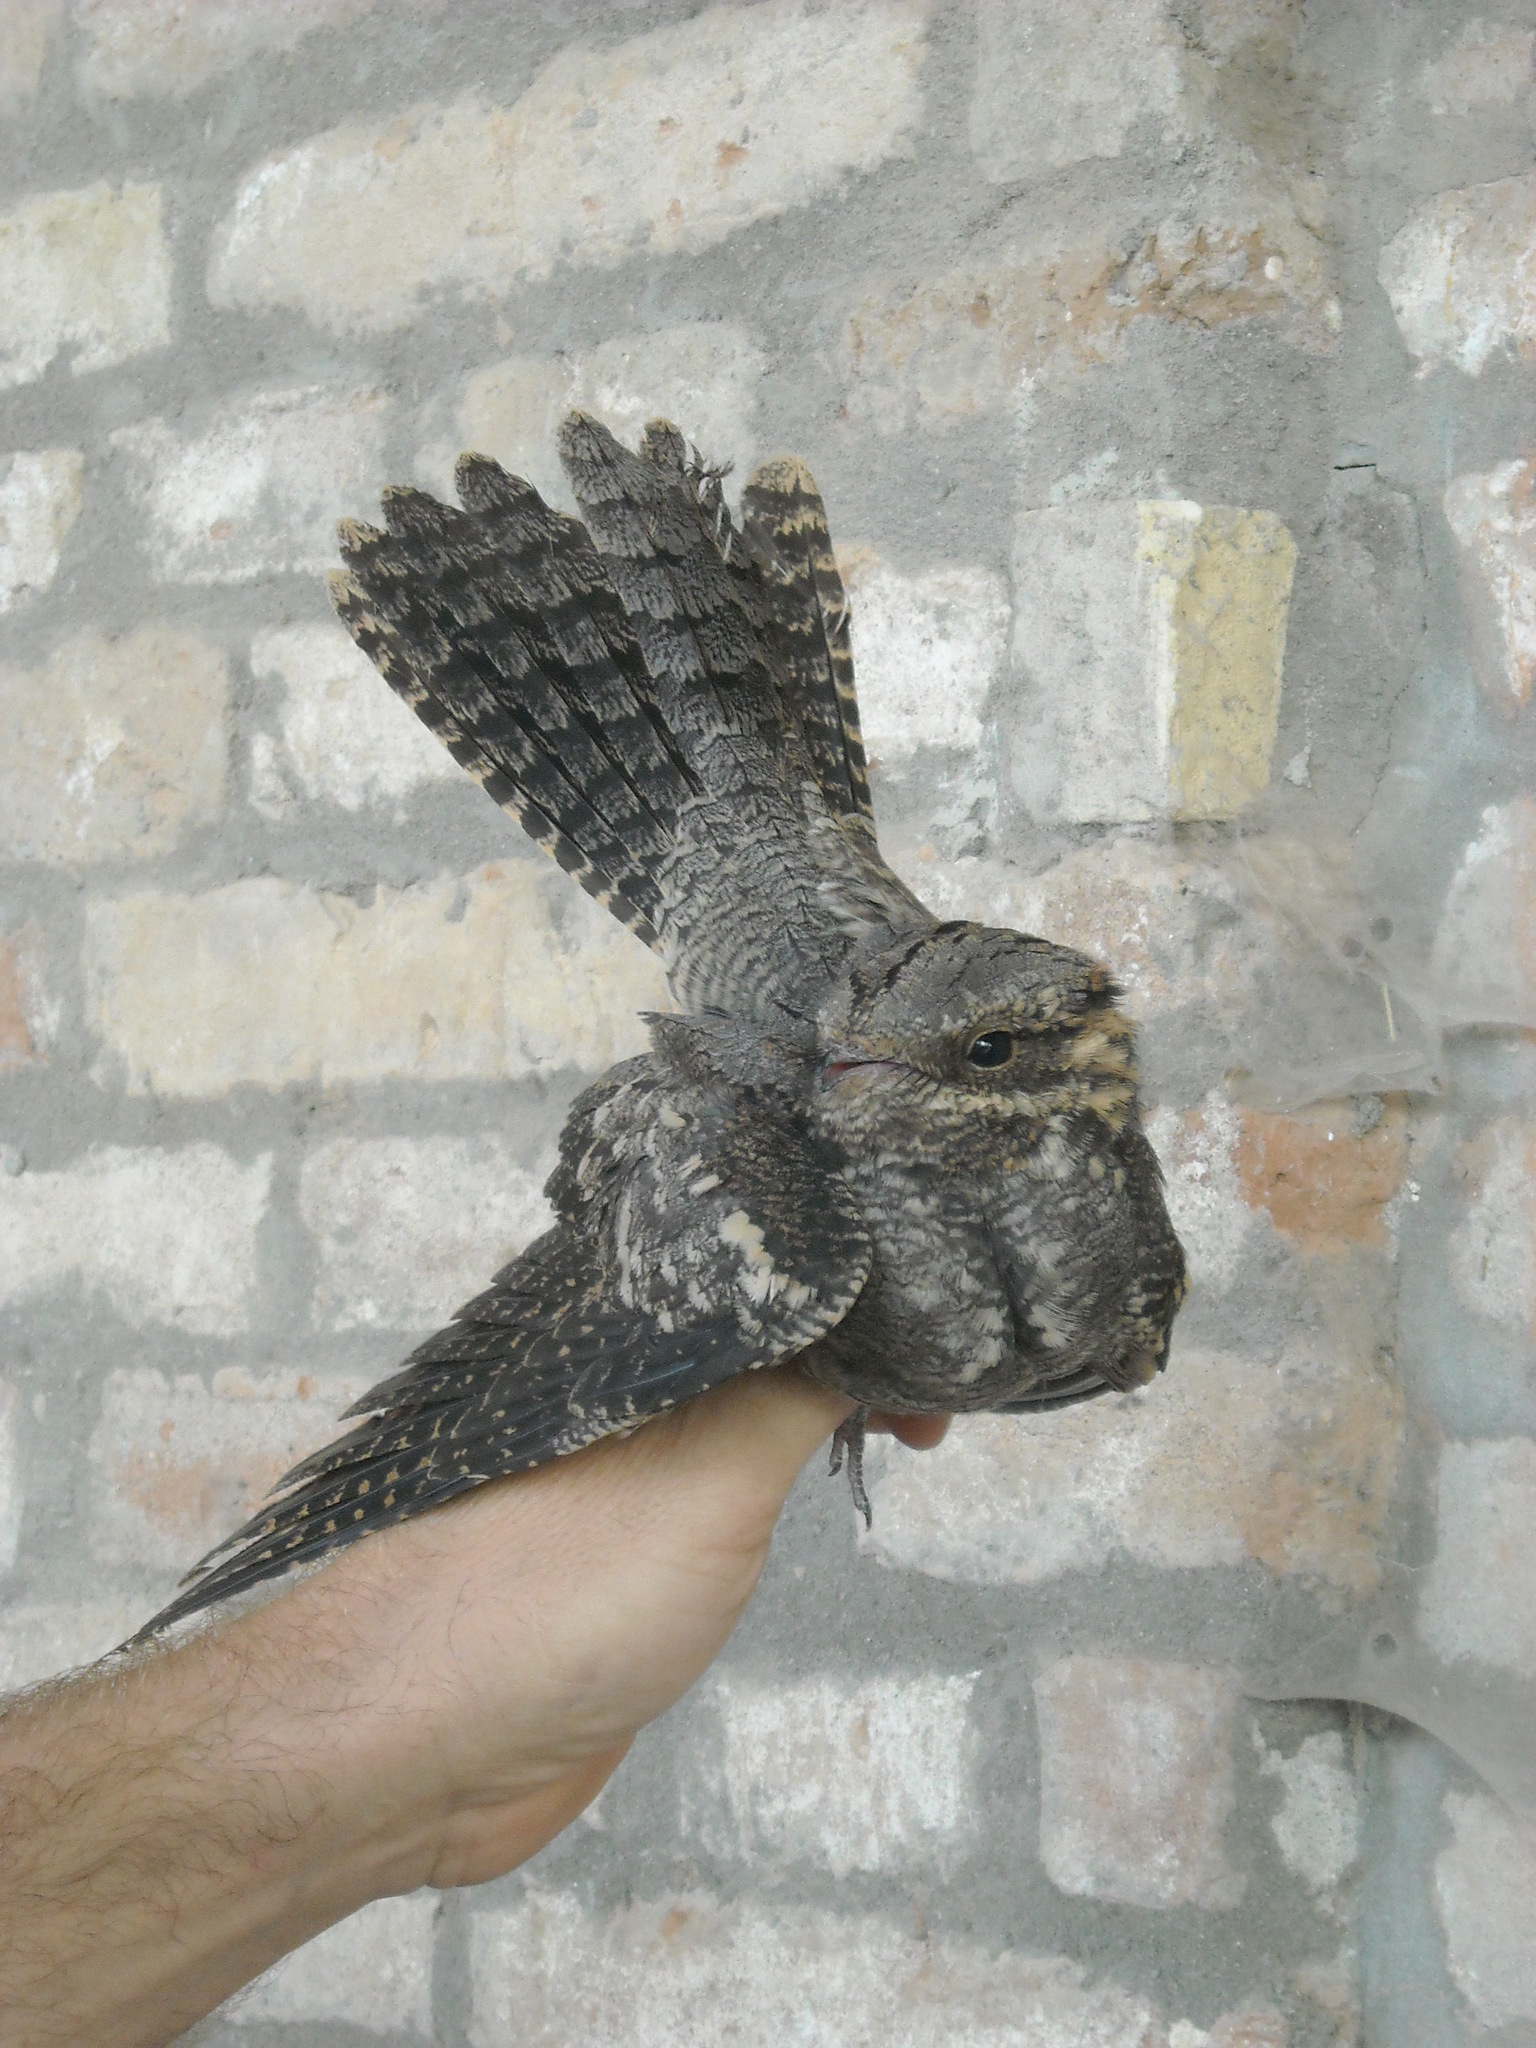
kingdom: Animalia
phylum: Chordata
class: Aves
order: Caprimulgiformes
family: Caprimulgidae
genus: Caprimulgus
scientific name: Caprimulgus europaeus
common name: European nightjar
